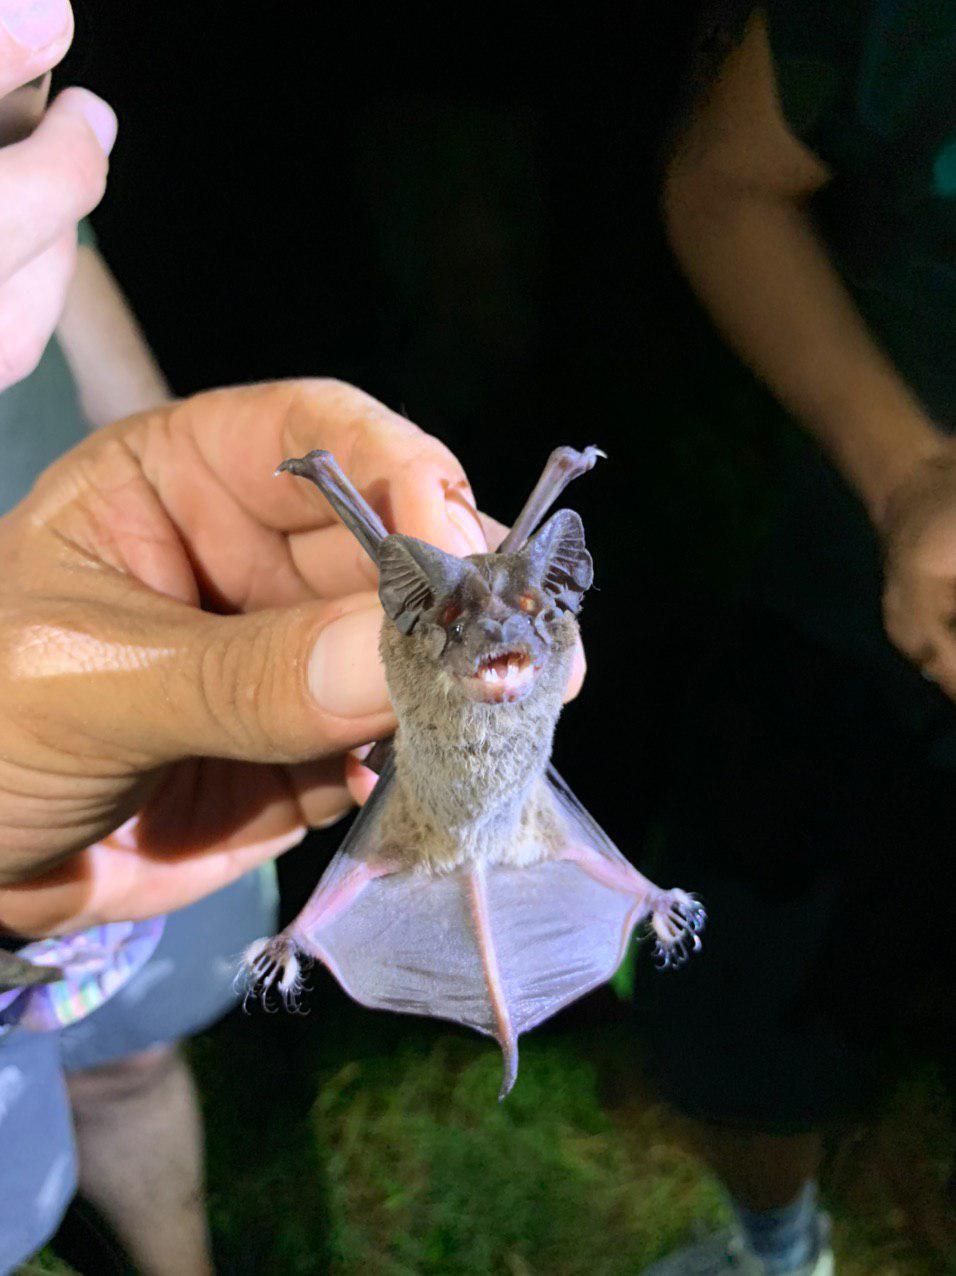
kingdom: Animalia
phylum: Chordata
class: Mammalia
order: Chiroptera
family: Molossidae
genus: Nyctinomops
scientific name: Nyctinomops laticaudatus
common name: Broad-eared free-tailed bat
